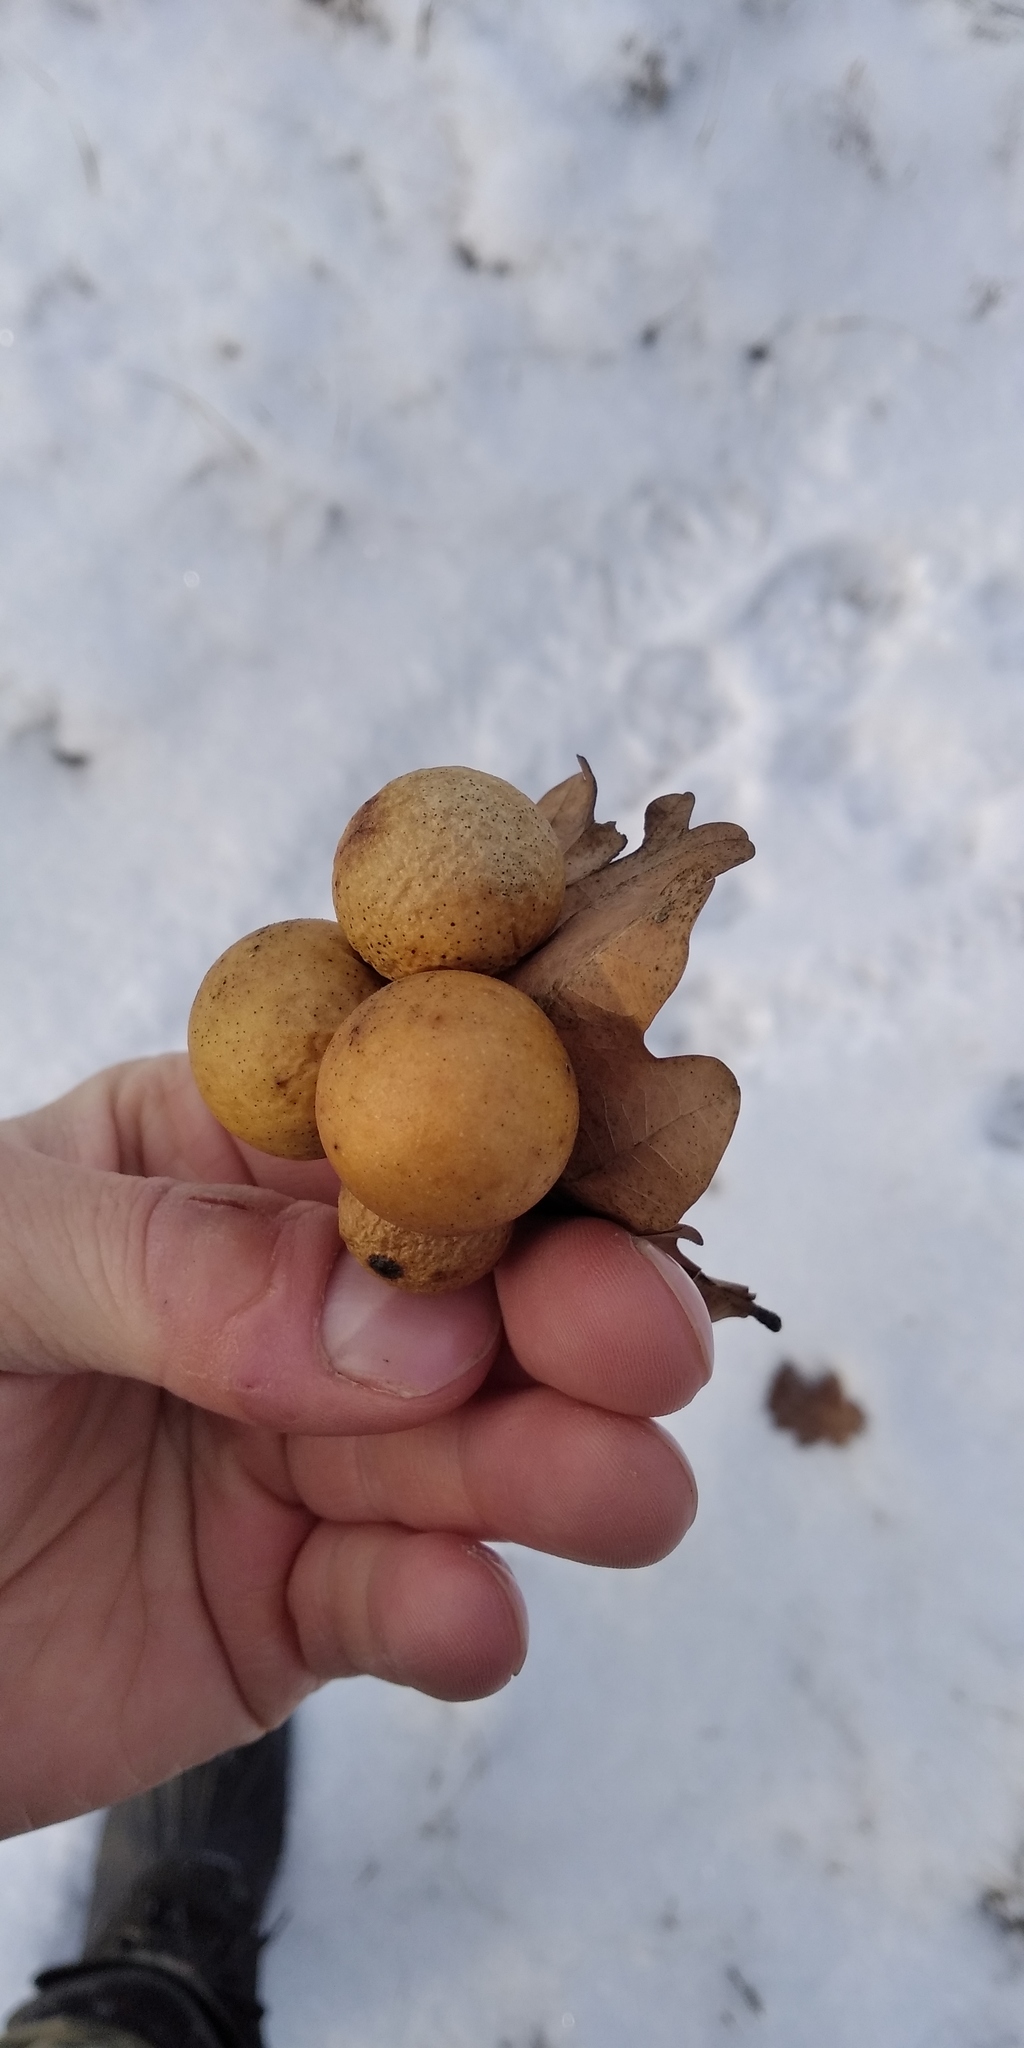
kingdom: Animalia
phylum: Arthropoda
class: Insecta
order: Hymenoptera
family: Cynipidae
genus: Cynips
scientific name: Cynips quercusfolii
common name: Cherry gall
